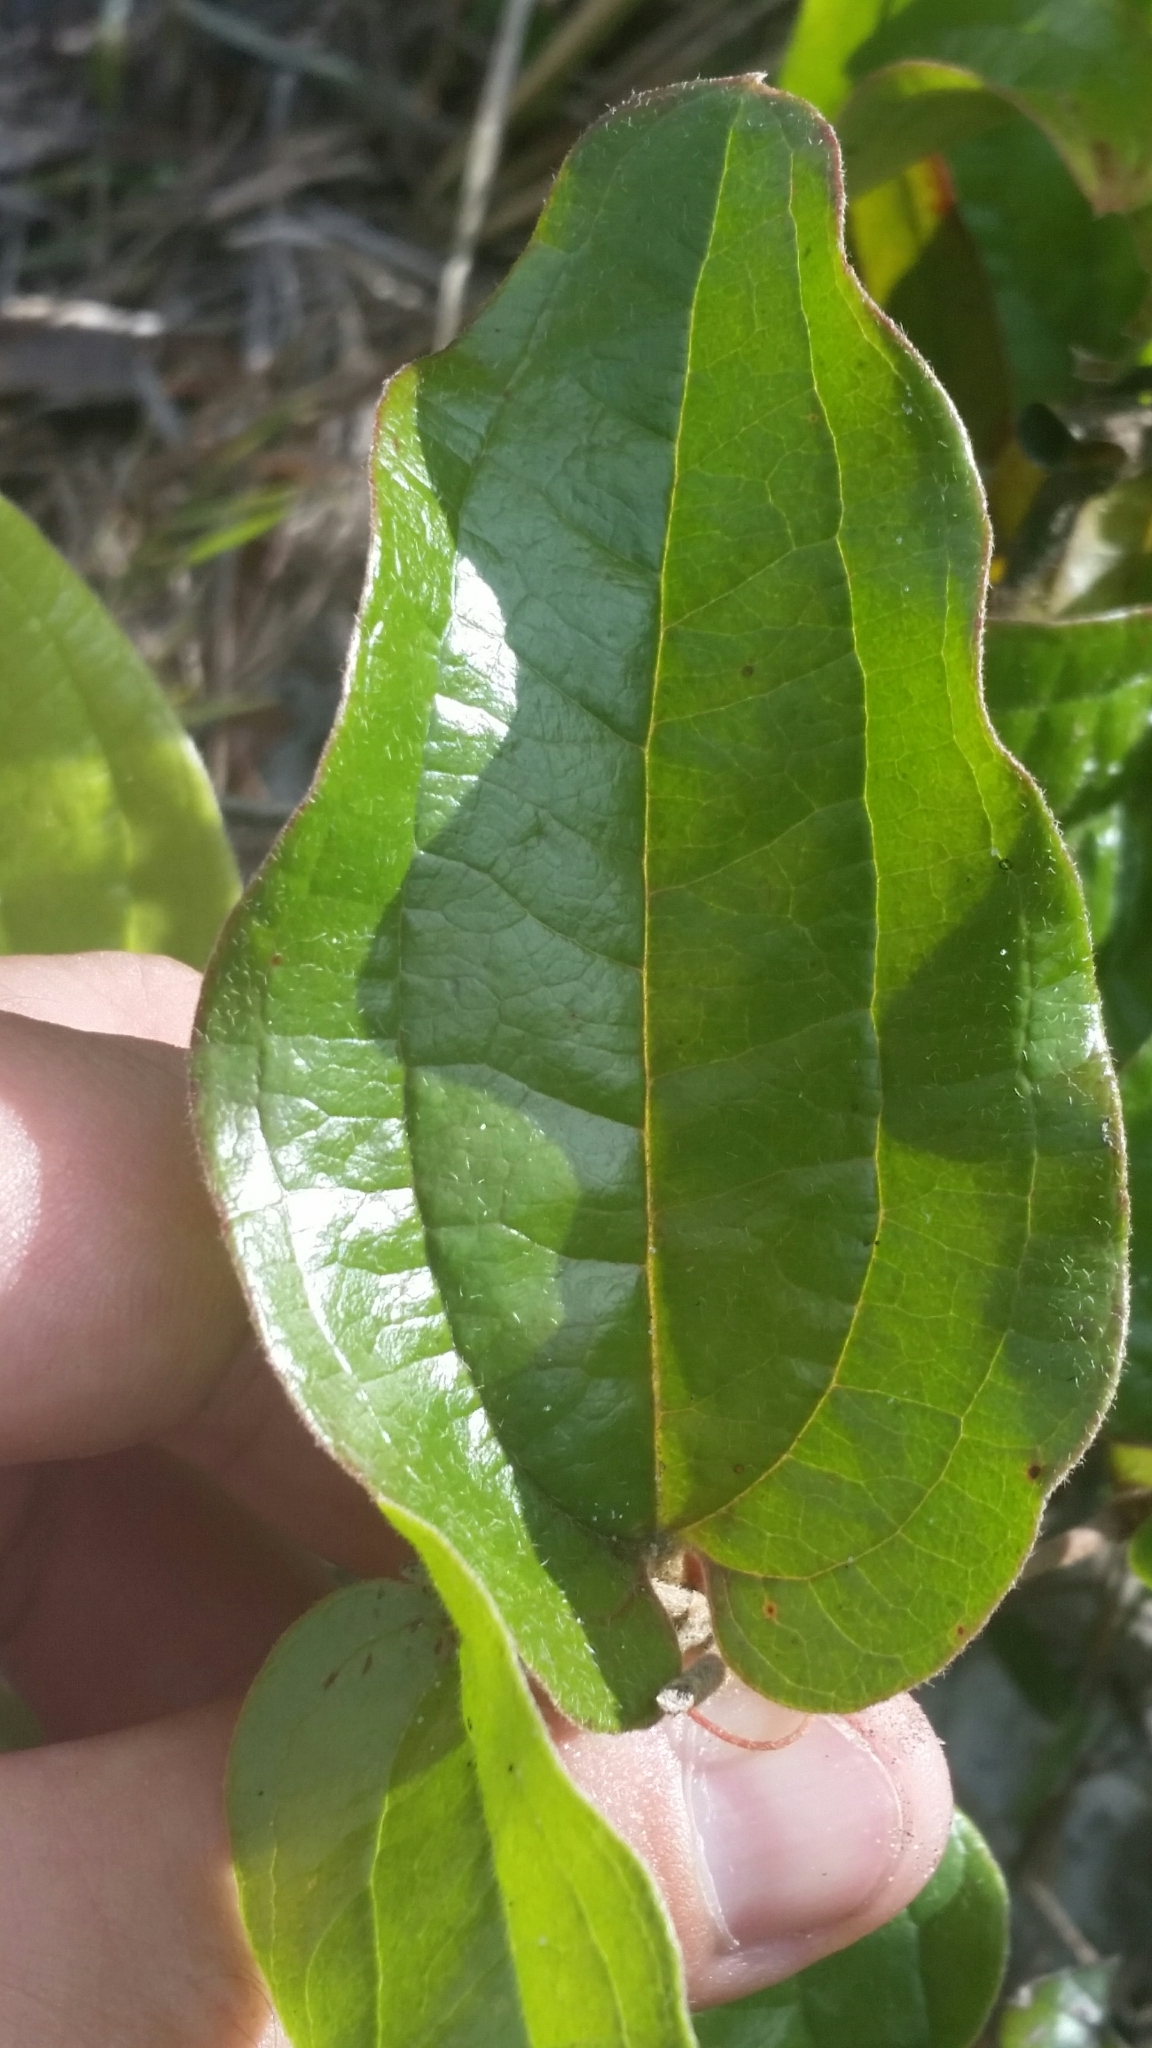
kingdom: Plantae
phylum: Tracheophyta
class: Liliopsida
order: Liliales
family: Smilacaceae
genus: Smilax
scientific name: Smilax pumila
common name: Sarsaparilla-vine
